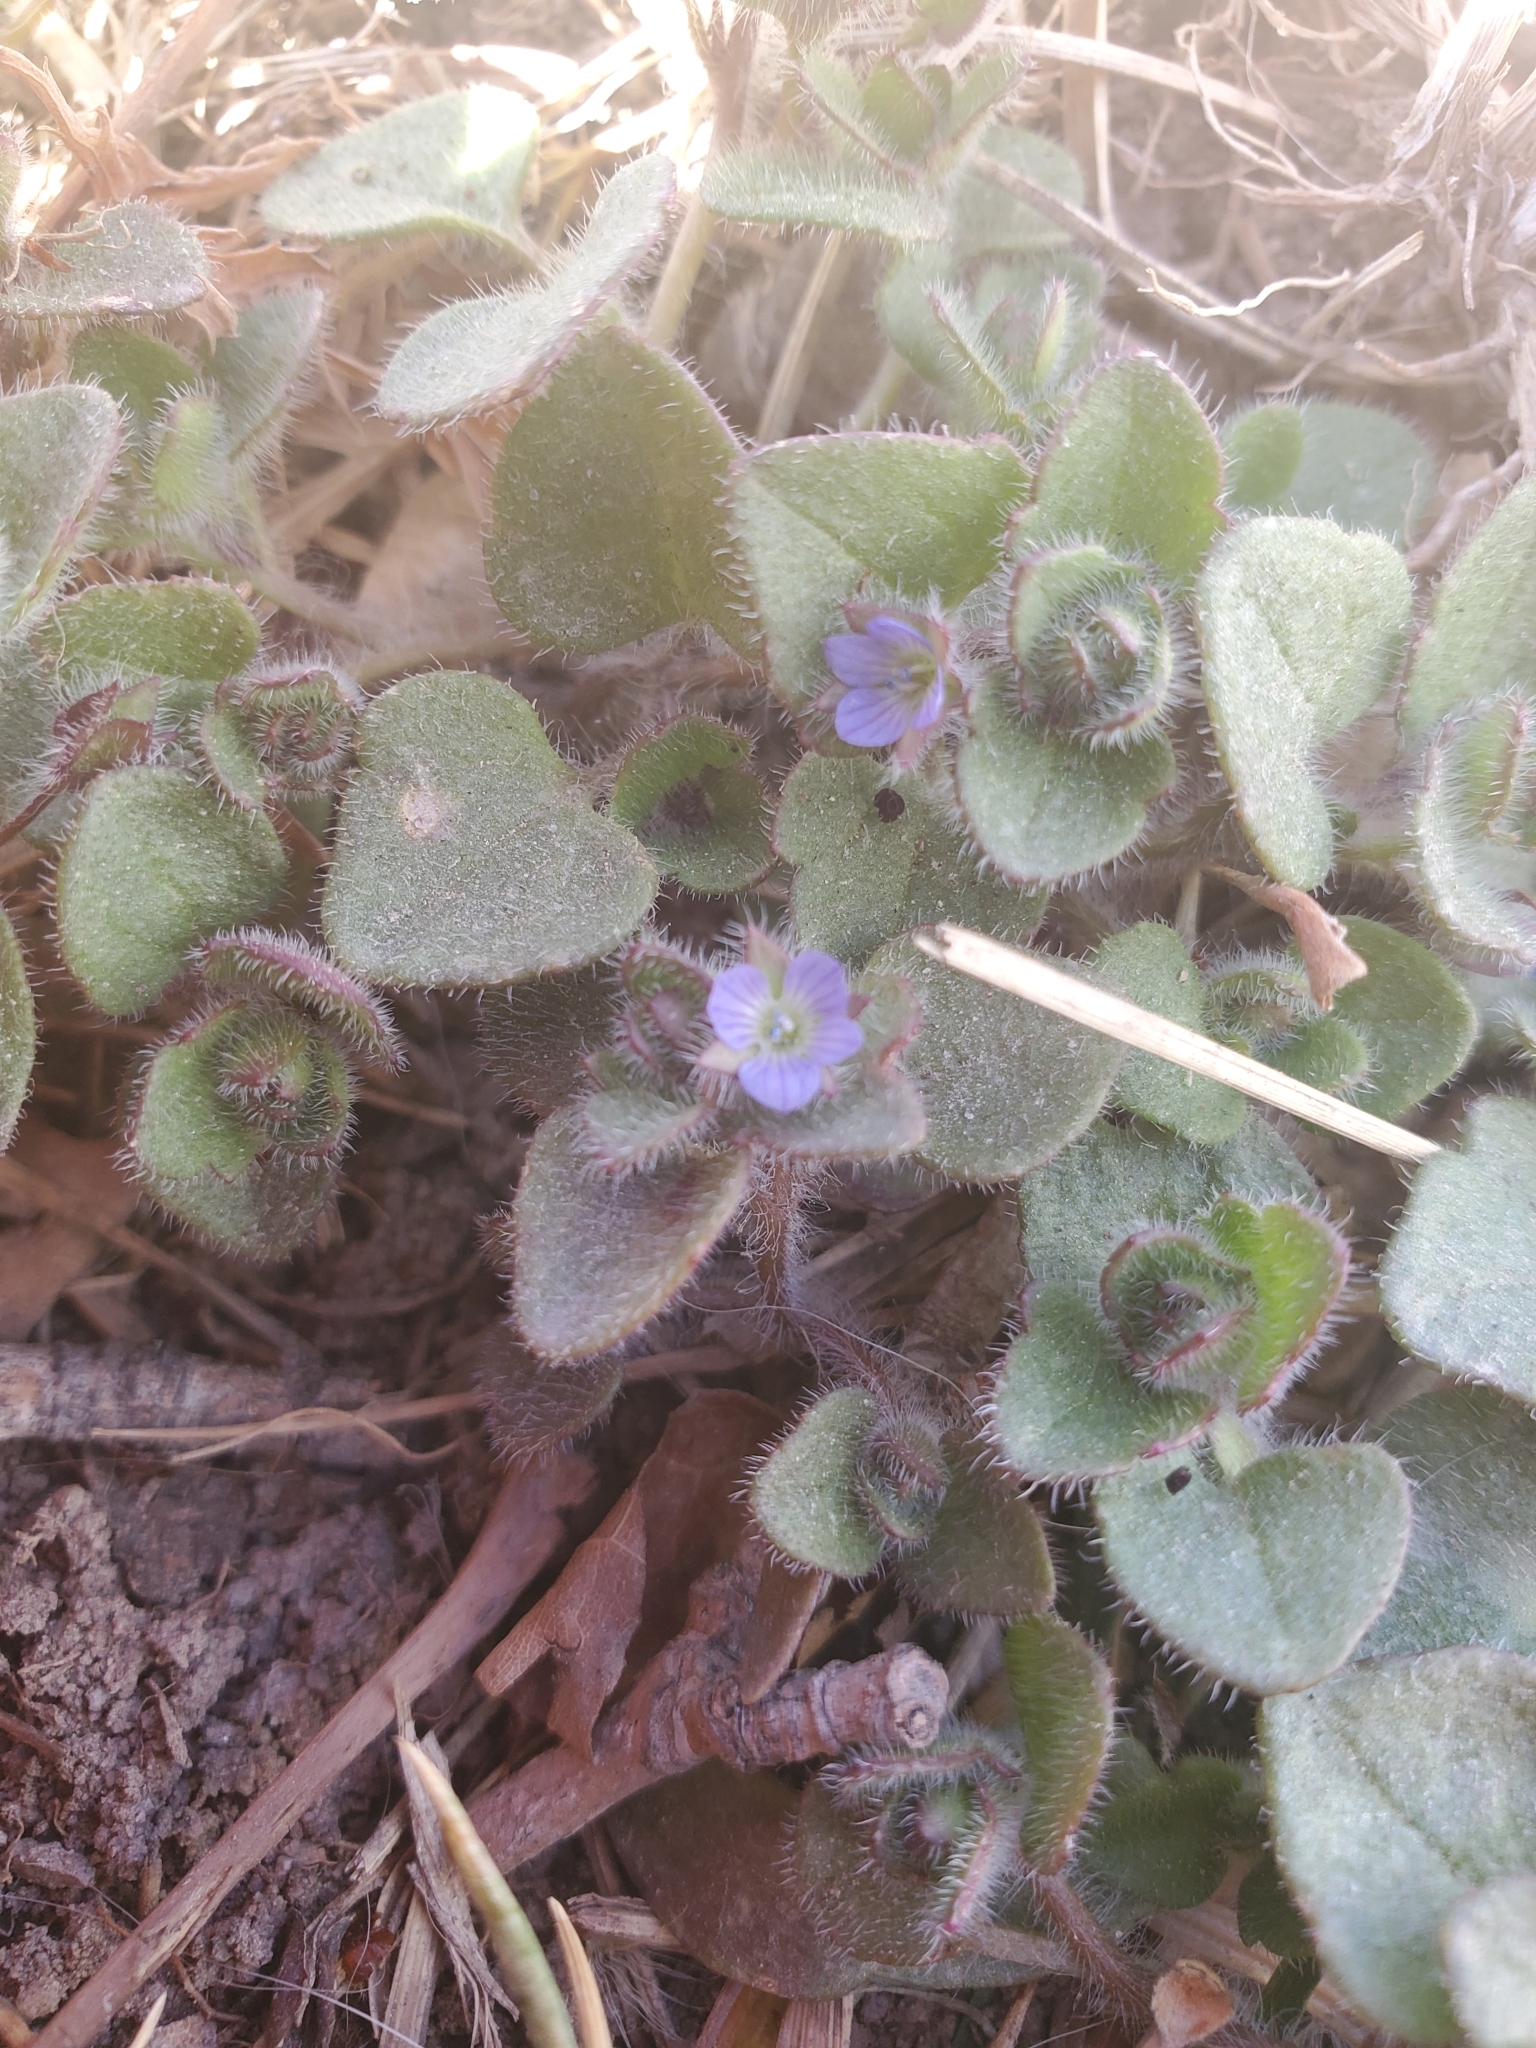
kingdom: Plantae
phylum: Tracheophyta
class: Magnoliopsida
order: Lamiales
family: Plantaginaceae
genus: Veronica
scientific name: Veronica hederifolia
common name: Ivy-leaved speedwell
